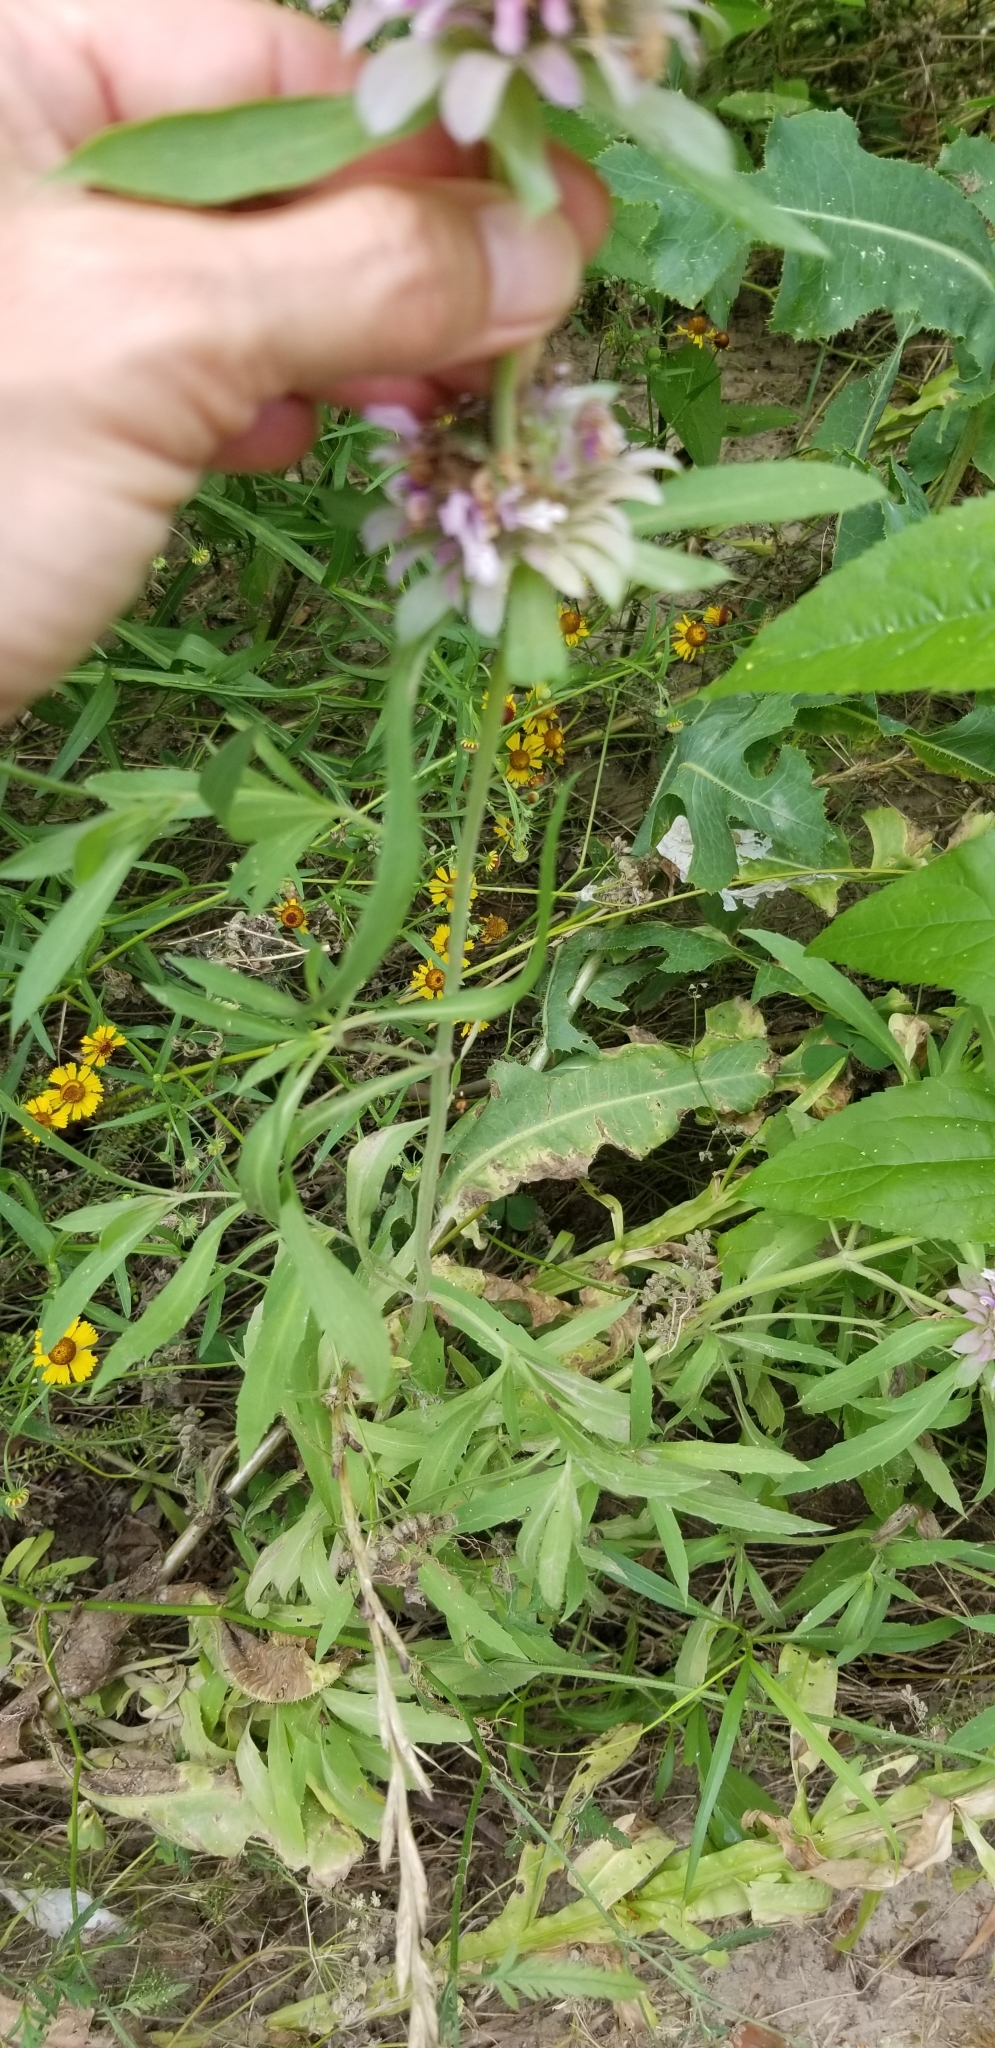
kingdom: Plantae
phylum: Tracheophyta
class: Magnoliopsida
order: Lamiales
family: Lamiaceae
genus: Monarda
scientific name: Monarda citriodora
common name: Lemon beebalm
